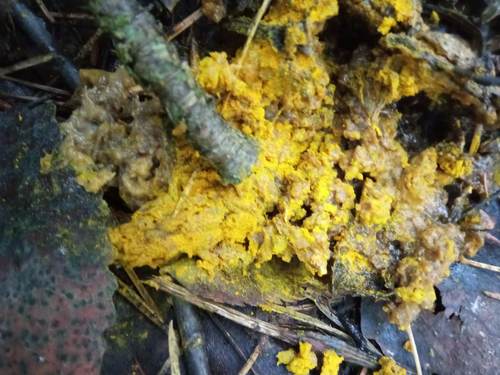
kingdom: Protozoa
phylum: Mycetozoa
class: Myxomycetes
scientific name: Myxomycetes
